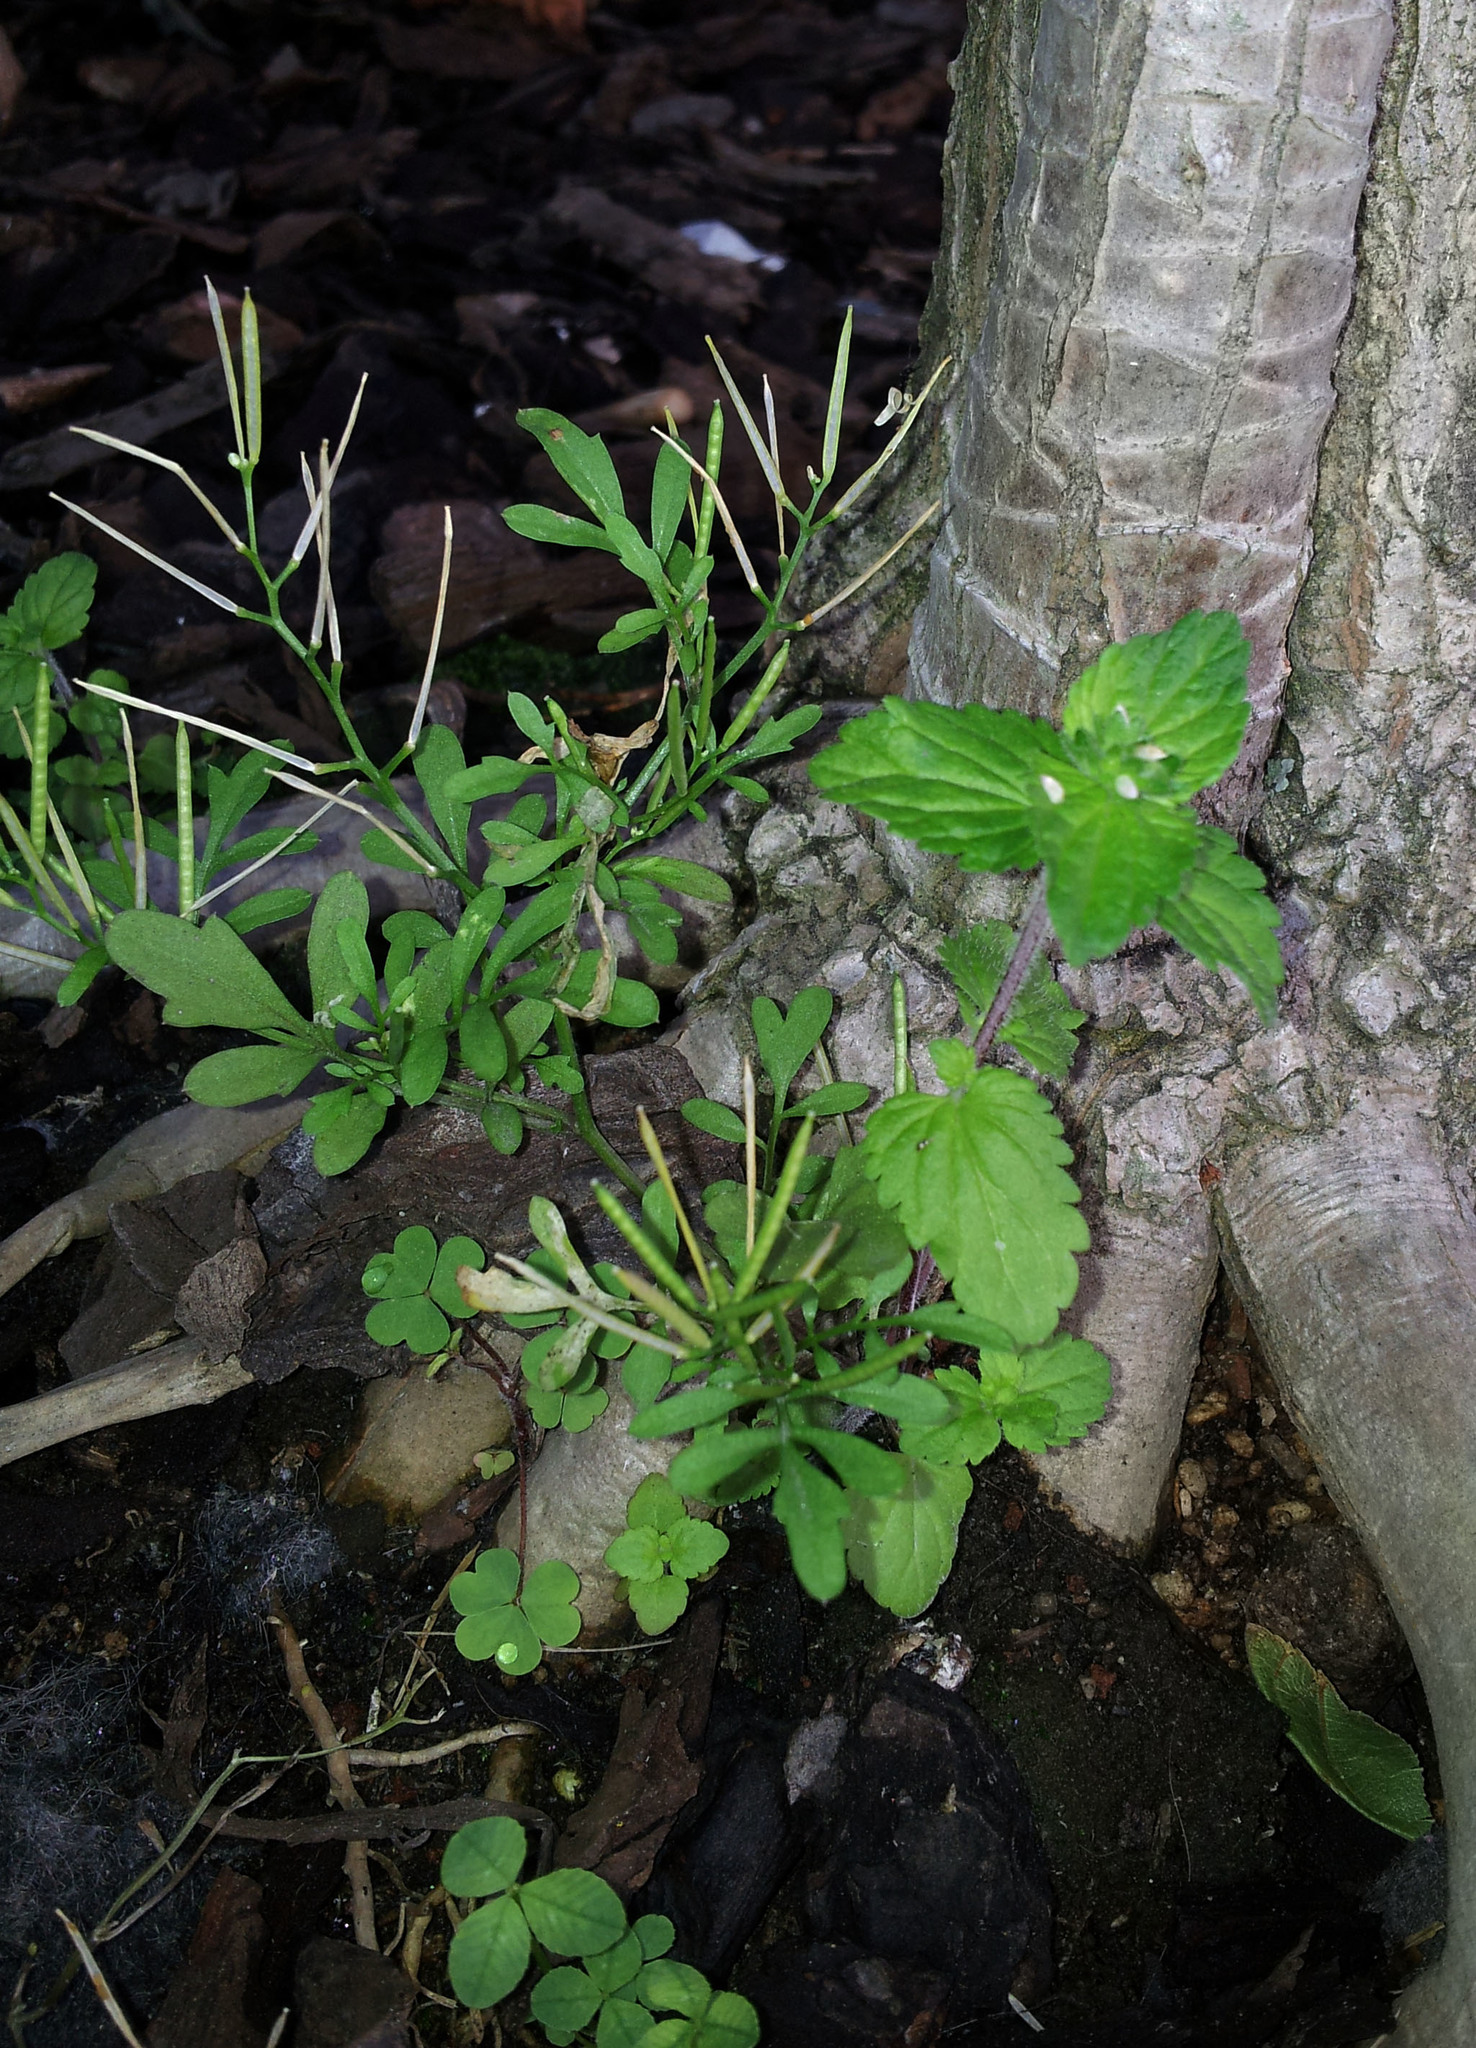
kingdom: Plantae
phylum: Tracheophyta
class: Magnoliopsida
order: Lamiales
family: Plantaginaceae
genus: Veronica
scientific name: Veronica javanica
